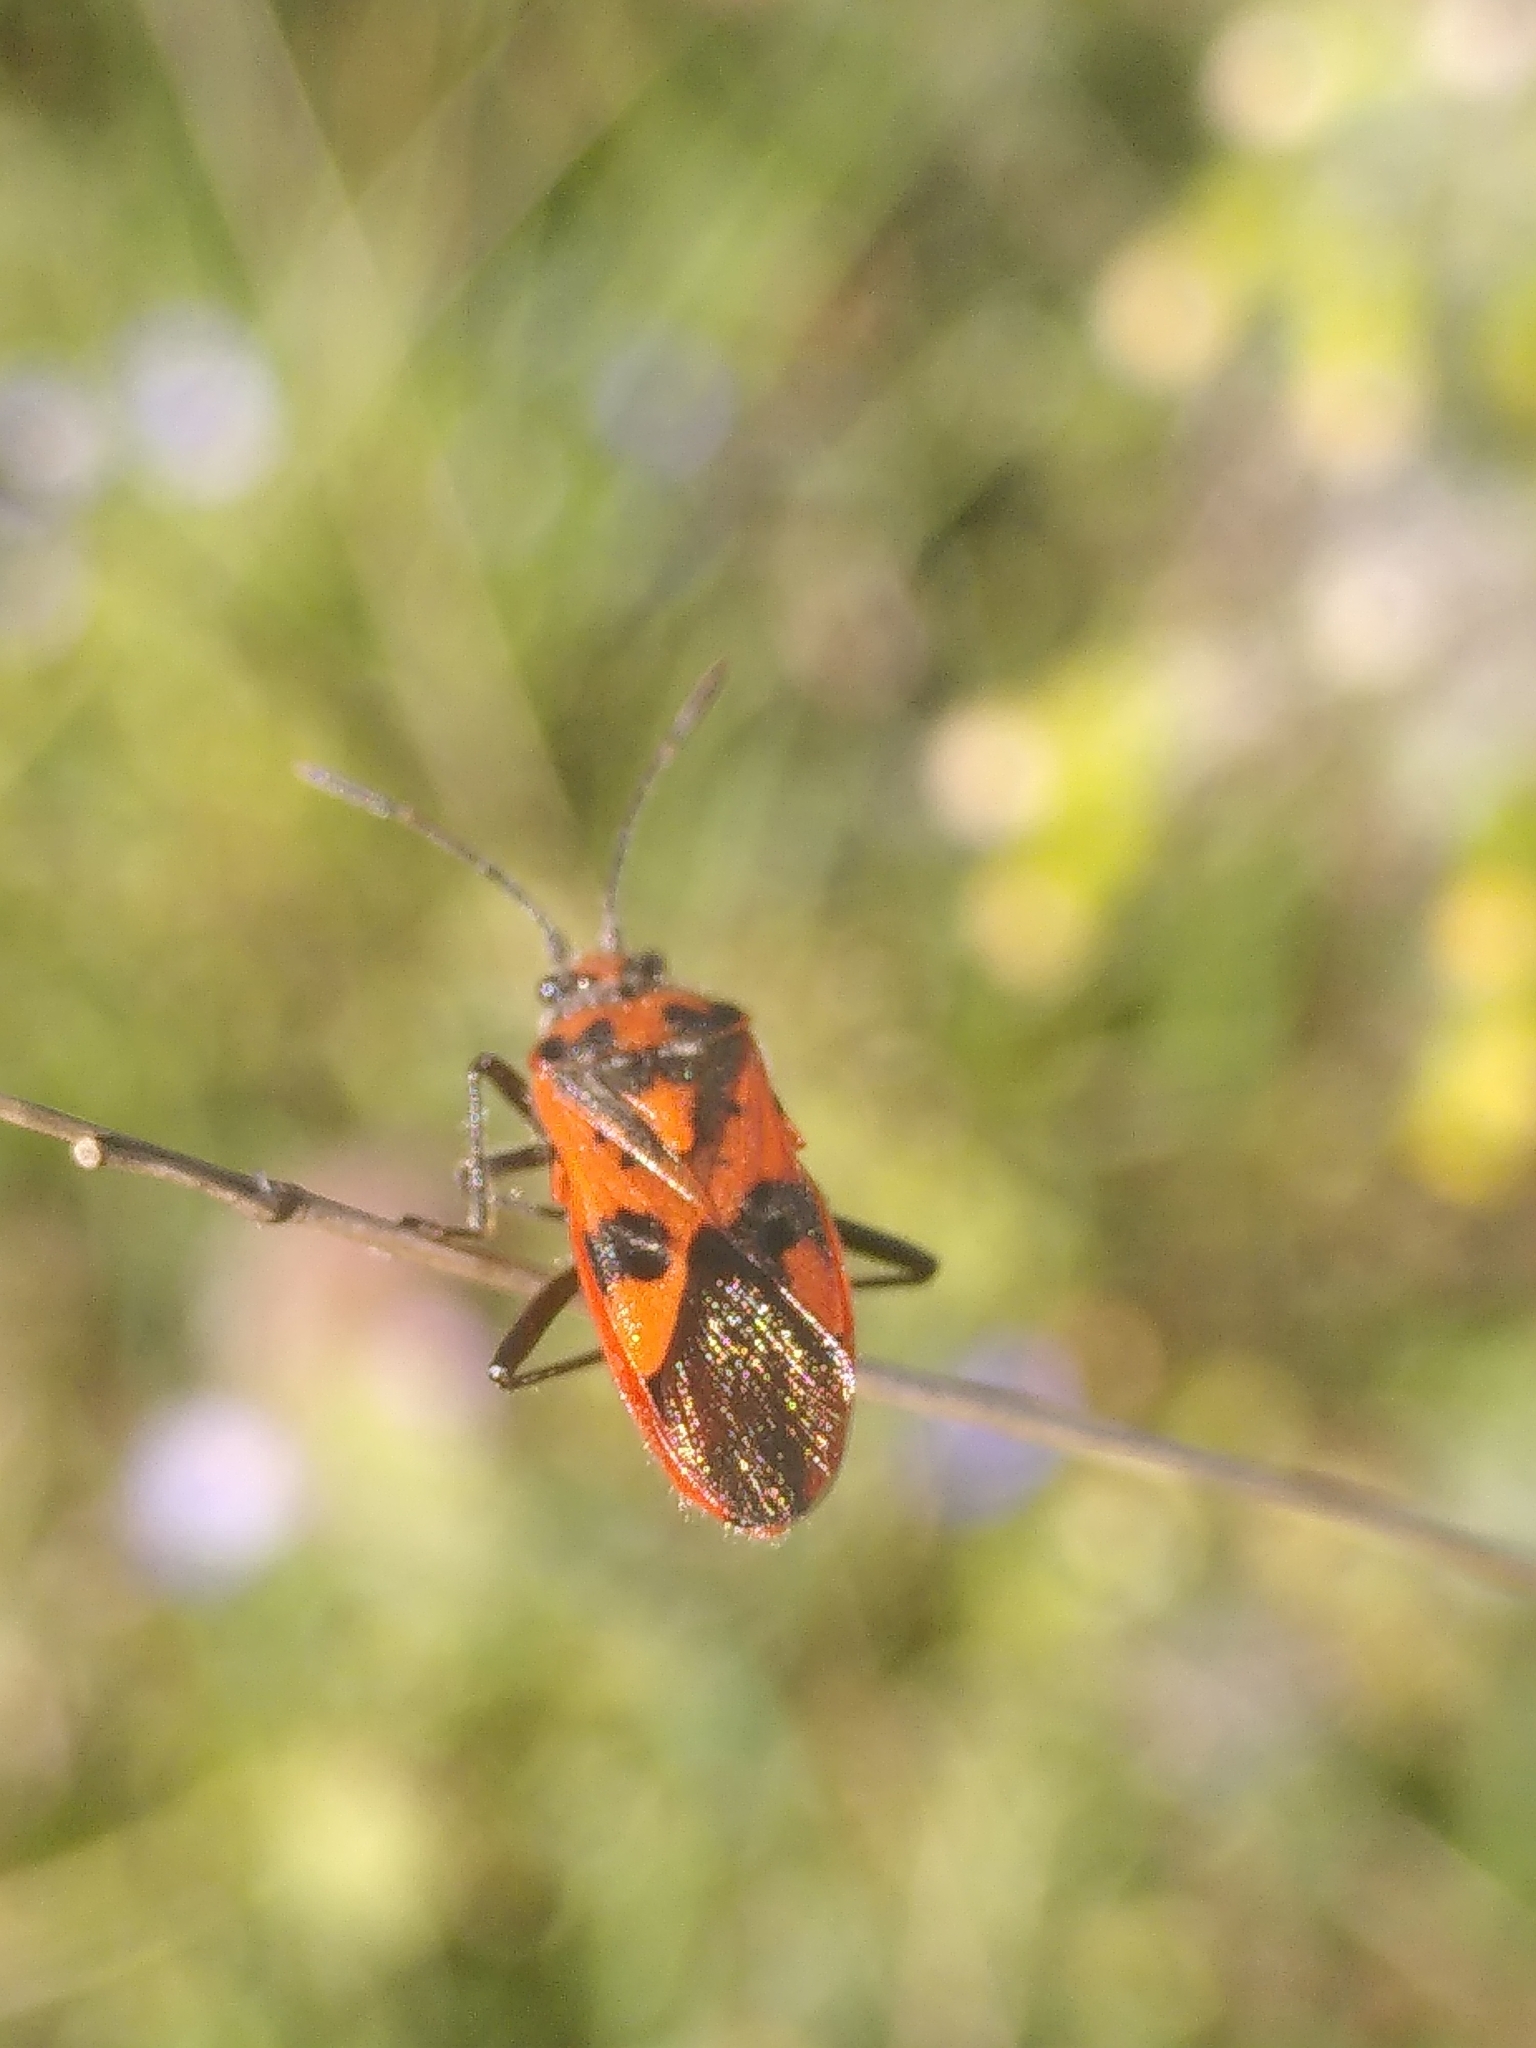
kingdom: Animalia
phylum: Arthropoda
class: Insecta
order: Hemiptera
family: Rhopalidae
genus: Corizus
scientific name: Corizus hyoscyami
